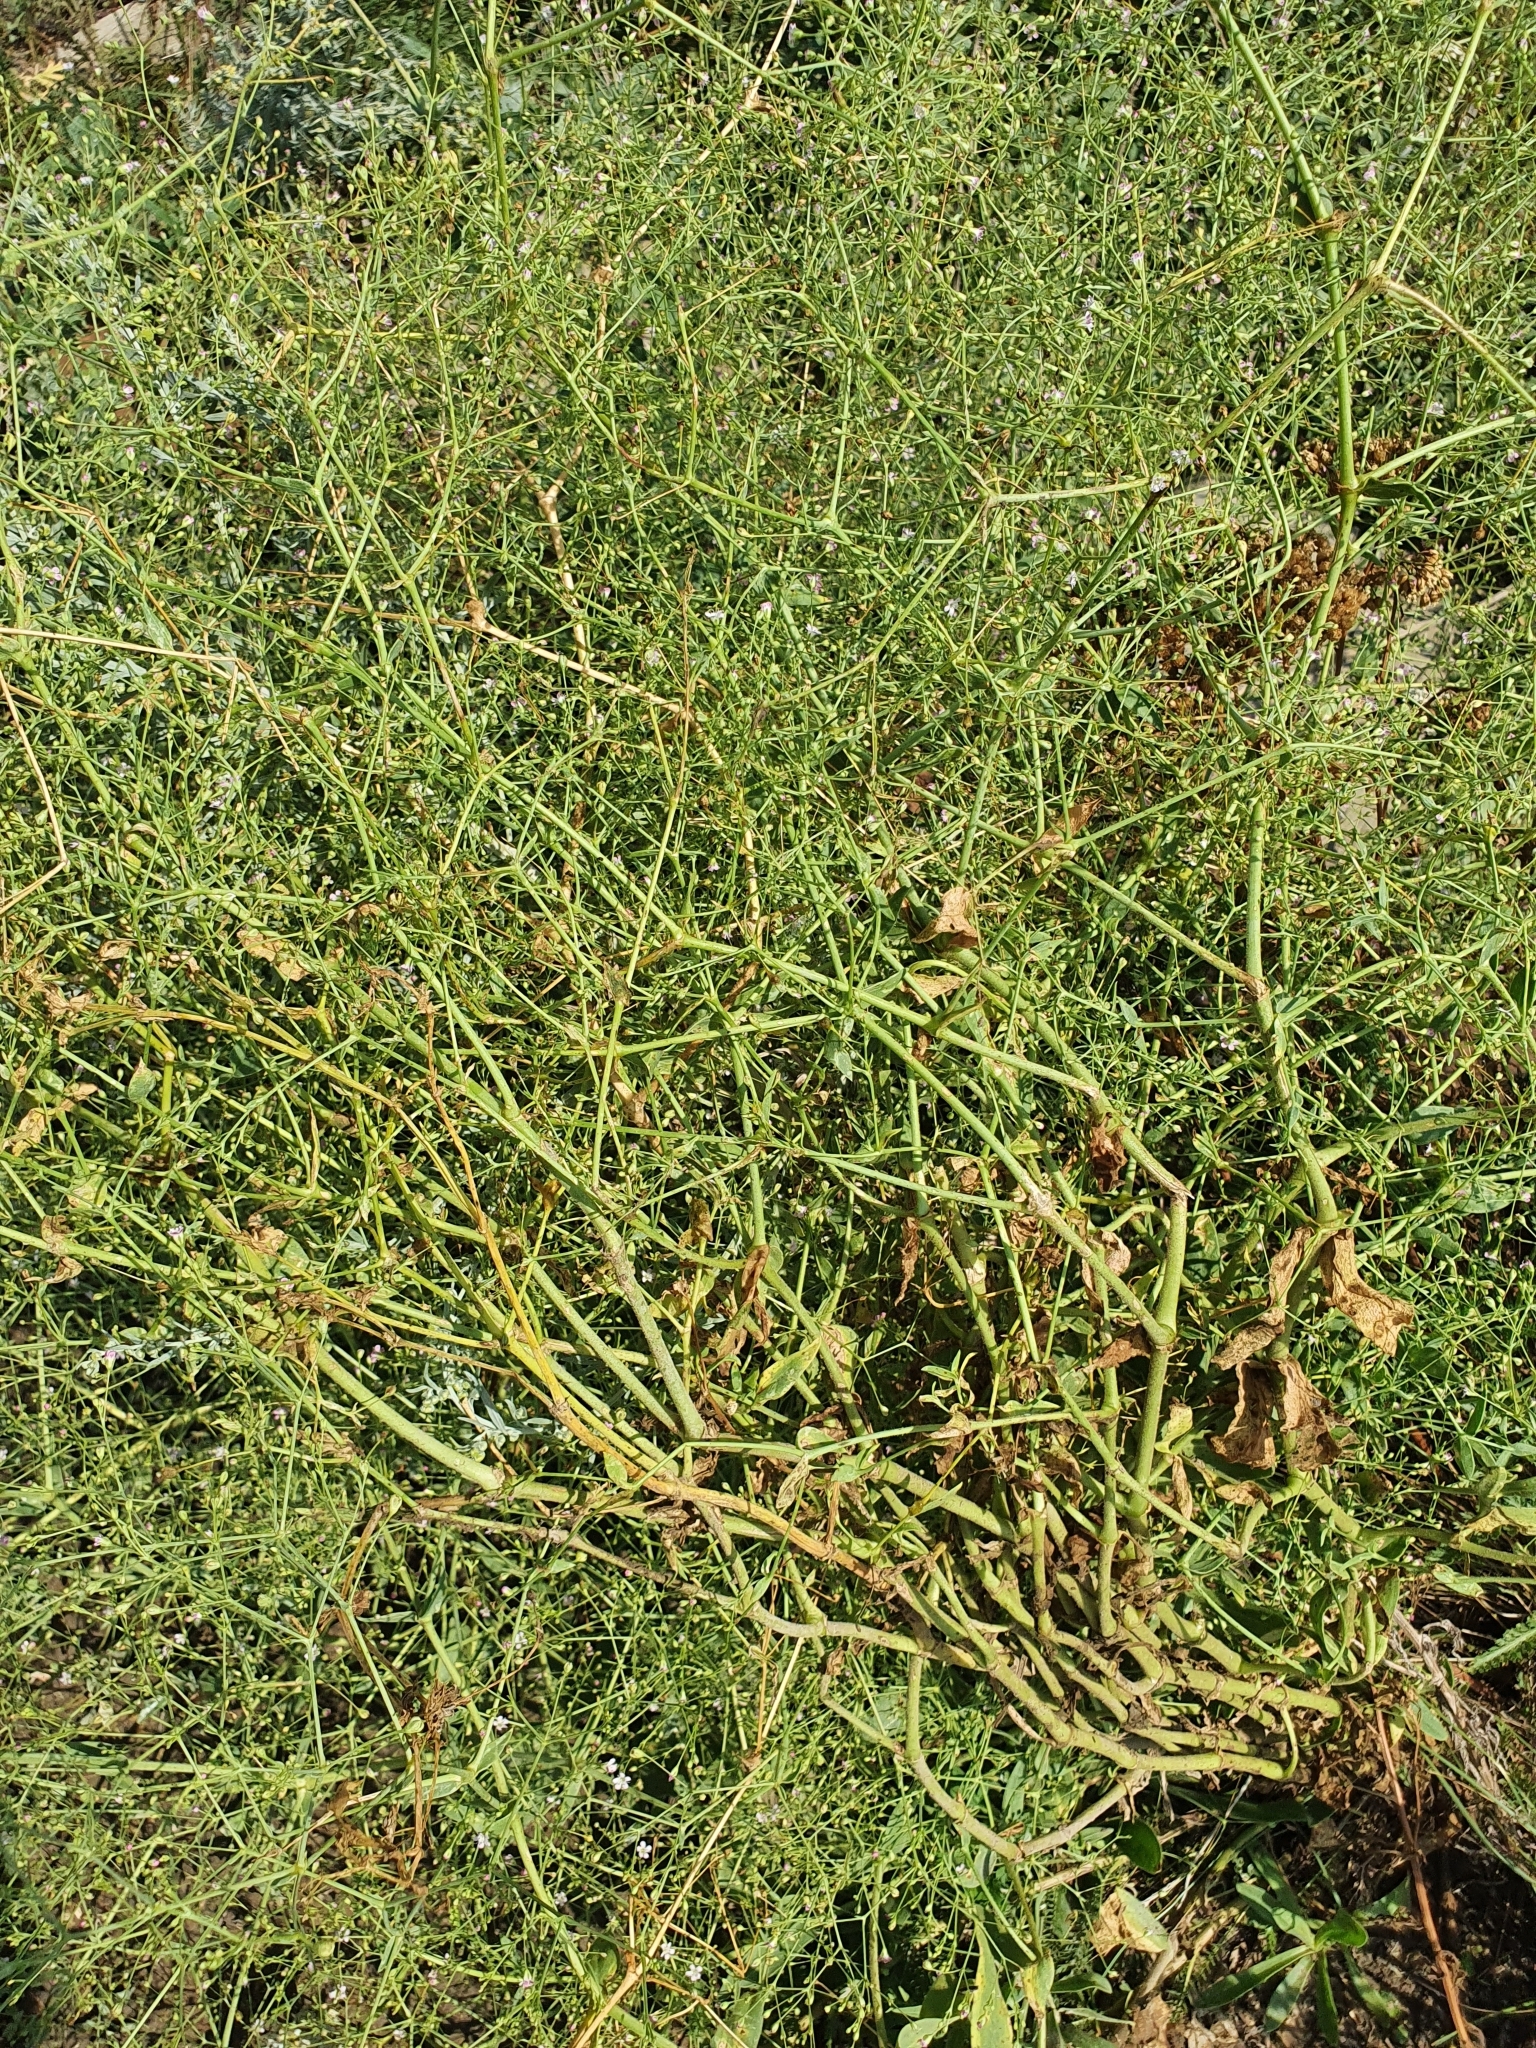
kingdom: Plantae
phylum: Tracheophyta
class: Magnoliopsida
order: Caryophyllales
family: Caryophyllaceae
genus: Gypsophila
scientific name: Gypsophila paniculata
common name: Baby's-breath
